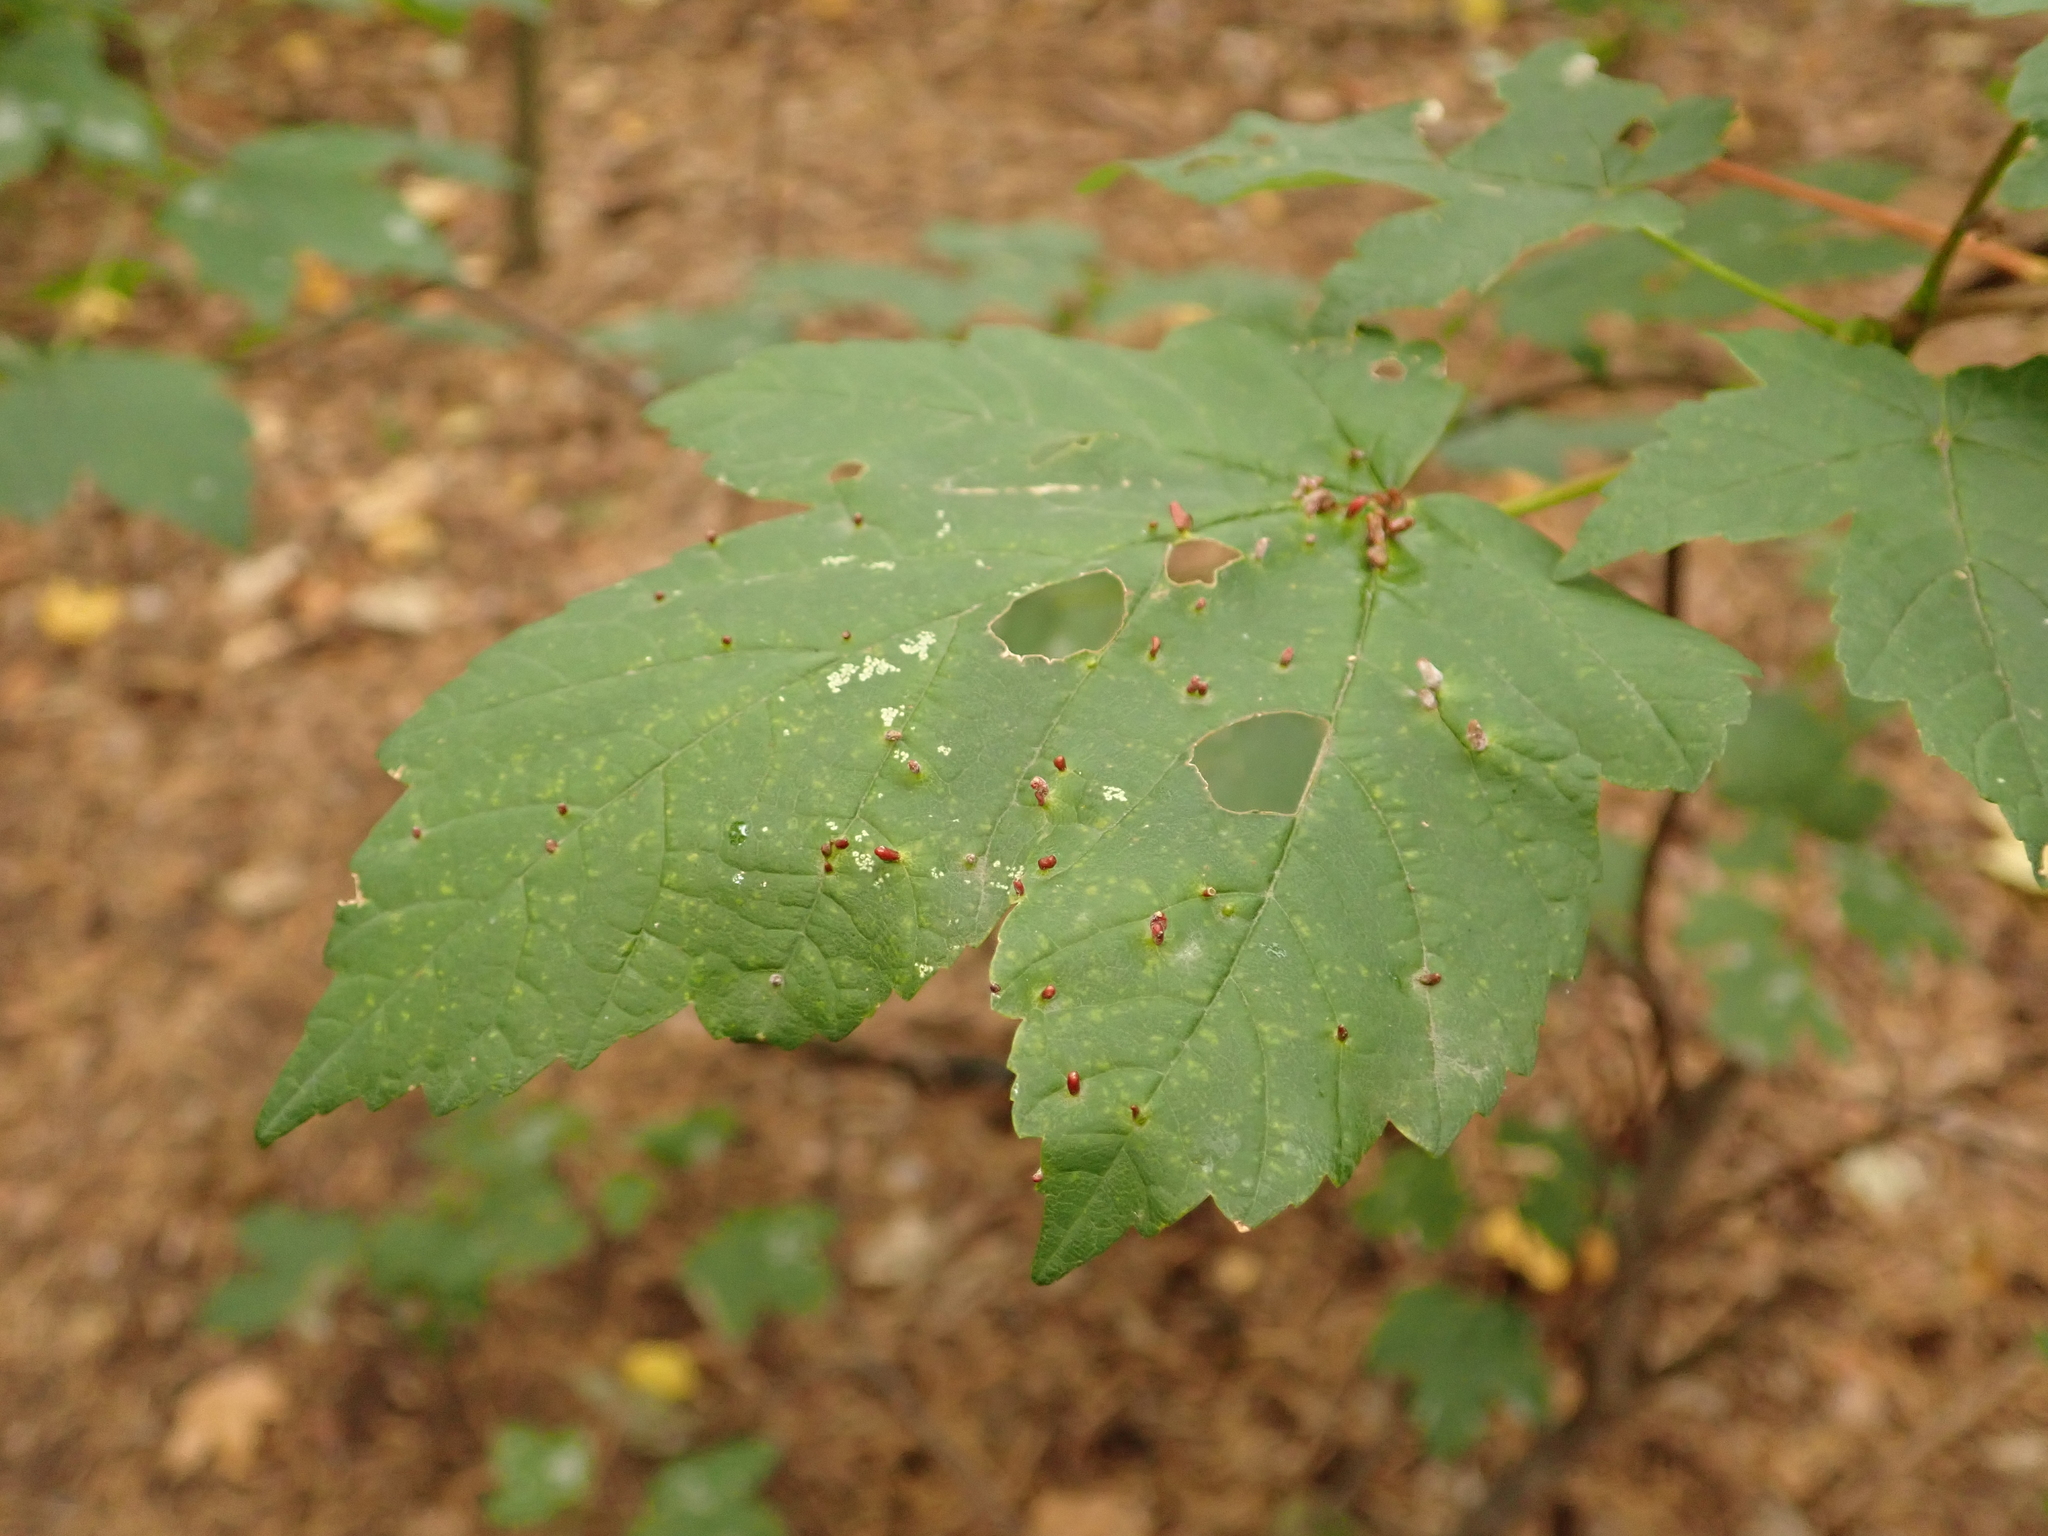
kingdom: Plantae
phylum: Tracheophyta
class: Magnoliopsida
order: Sapindales
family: Sapindaceae
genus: Acer
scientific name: Acer pseudoplatanus
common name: Sycamore
